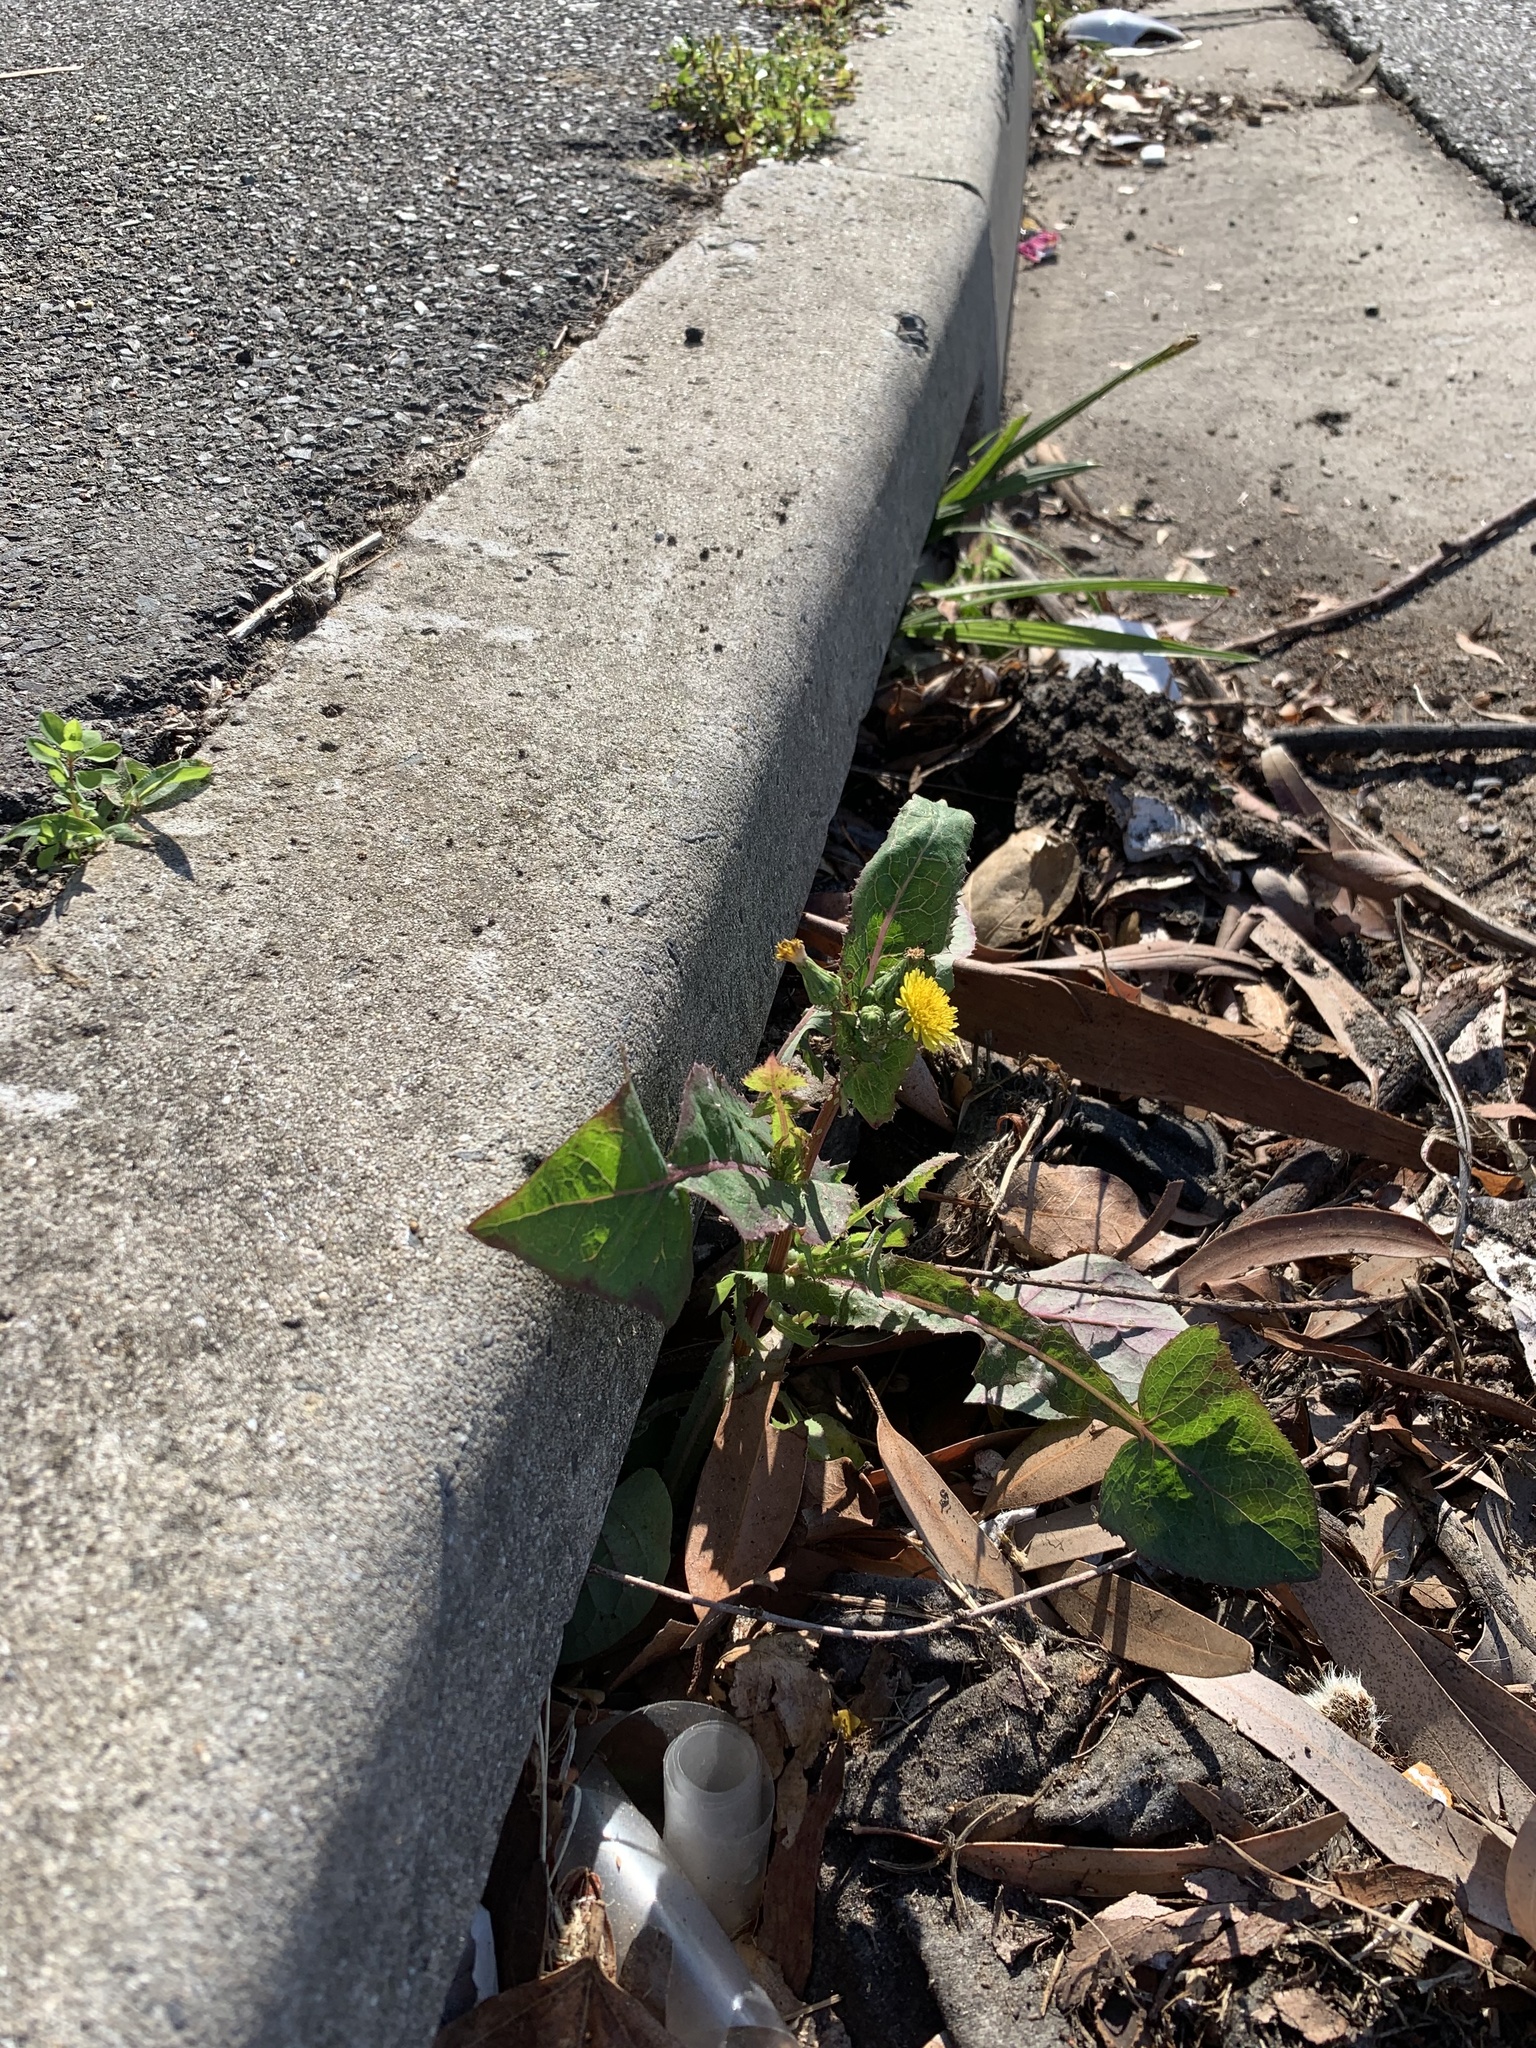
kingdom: Plantae
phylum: Tracheophyta
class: Magnoliopsida
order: Asterales
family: Asteraceae
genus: Sonchus
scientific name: Sonchus oleraceus
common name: Common sowthistle
